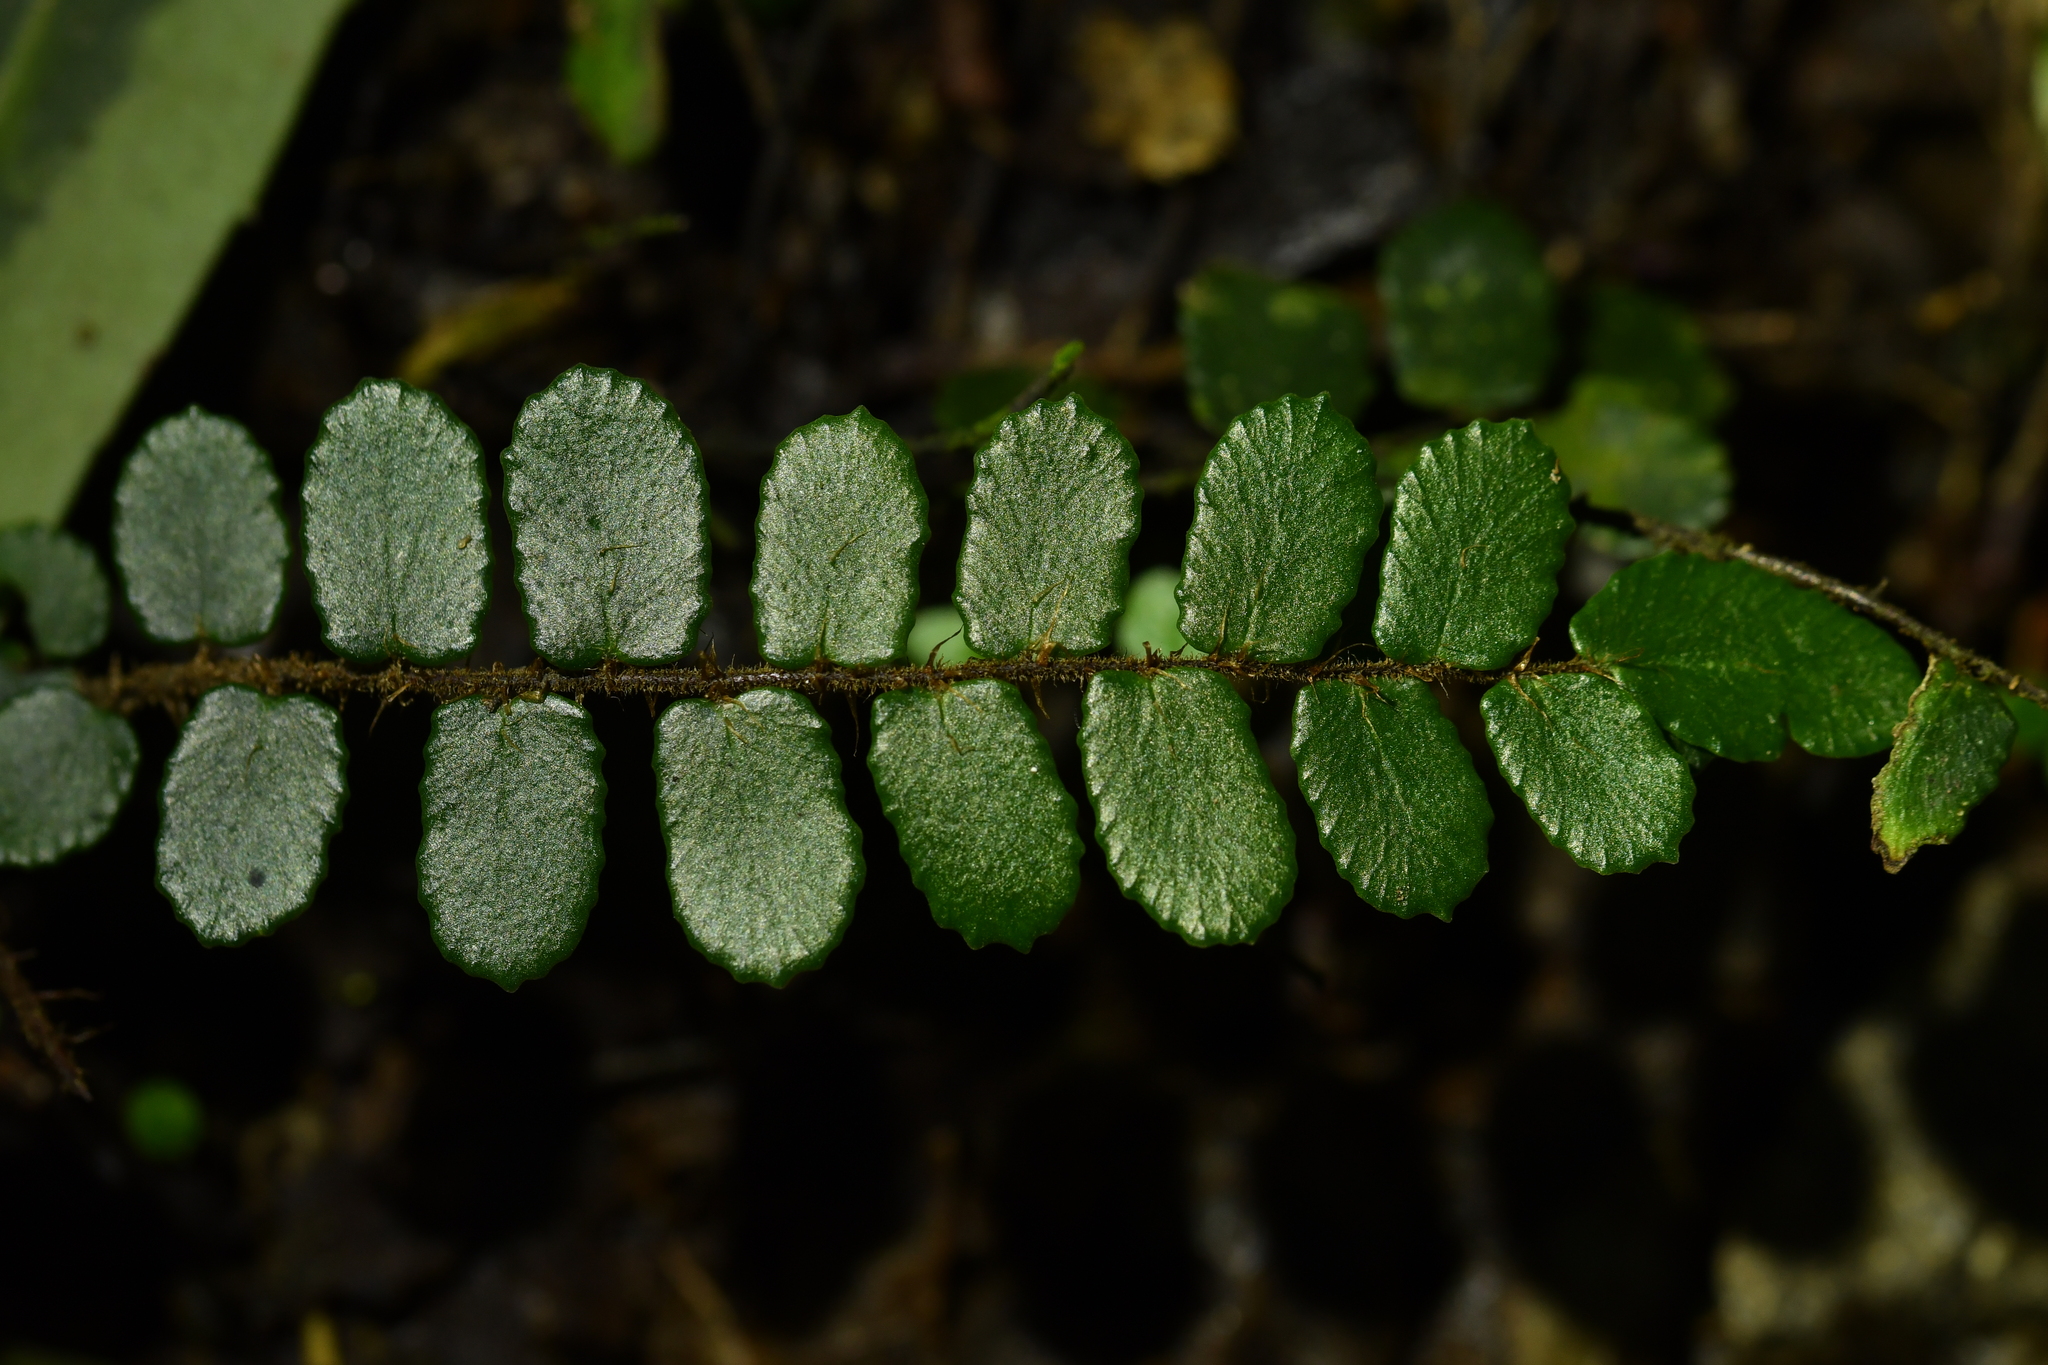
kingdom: Plantae
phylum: Tracheophyta
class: Polypodiopsida
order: Polypodiales
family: Pteridaceae
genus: Pellaea
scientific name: Pellaea rotundifolia
